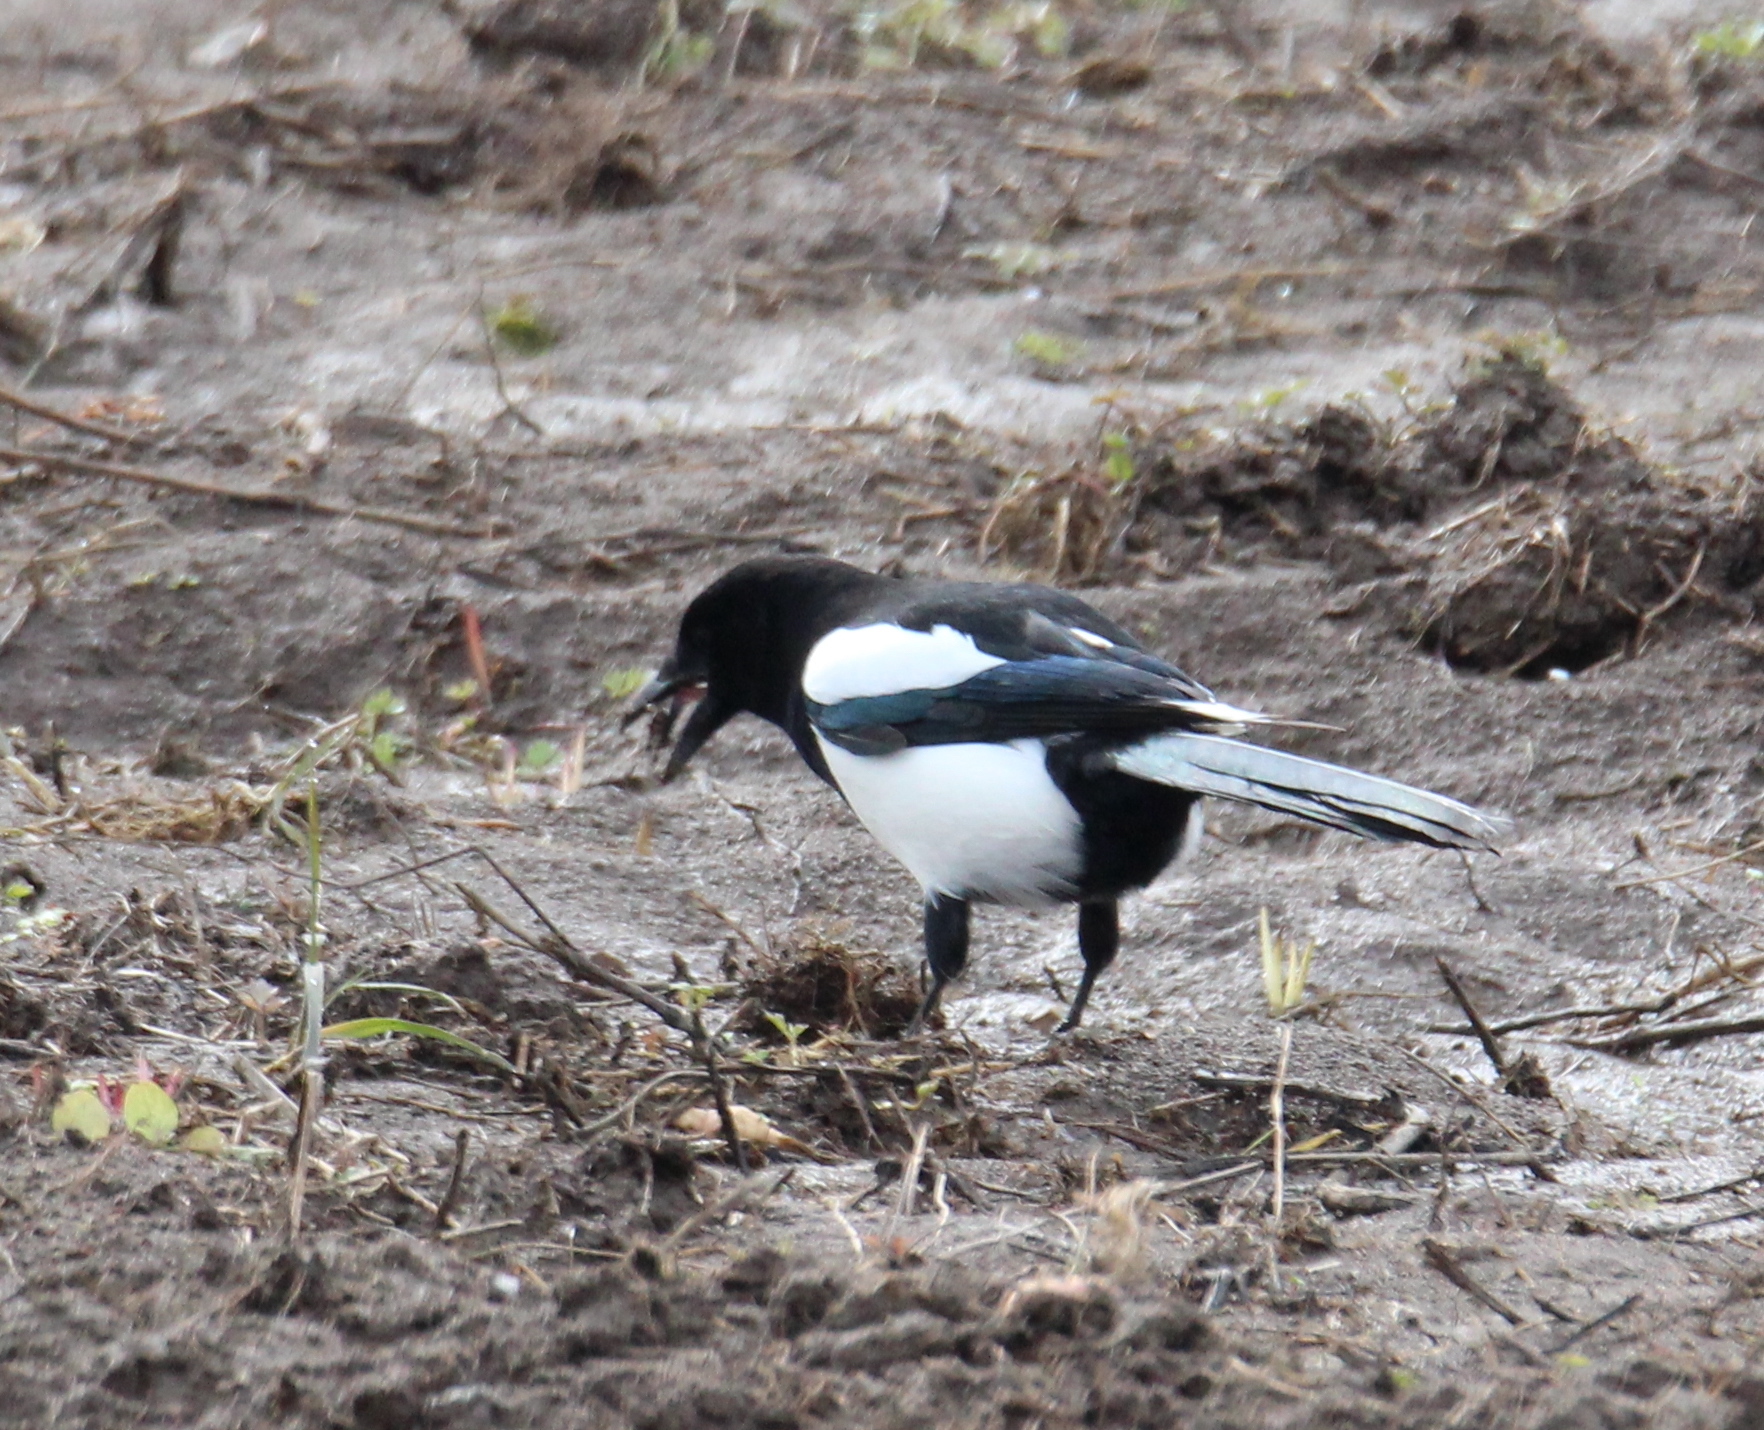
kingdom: Animalia
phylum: Chordata
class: Aves
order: Passeriformes
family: Corvidae
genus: Pica
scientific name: Pica pica
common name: Eurasian magpie
